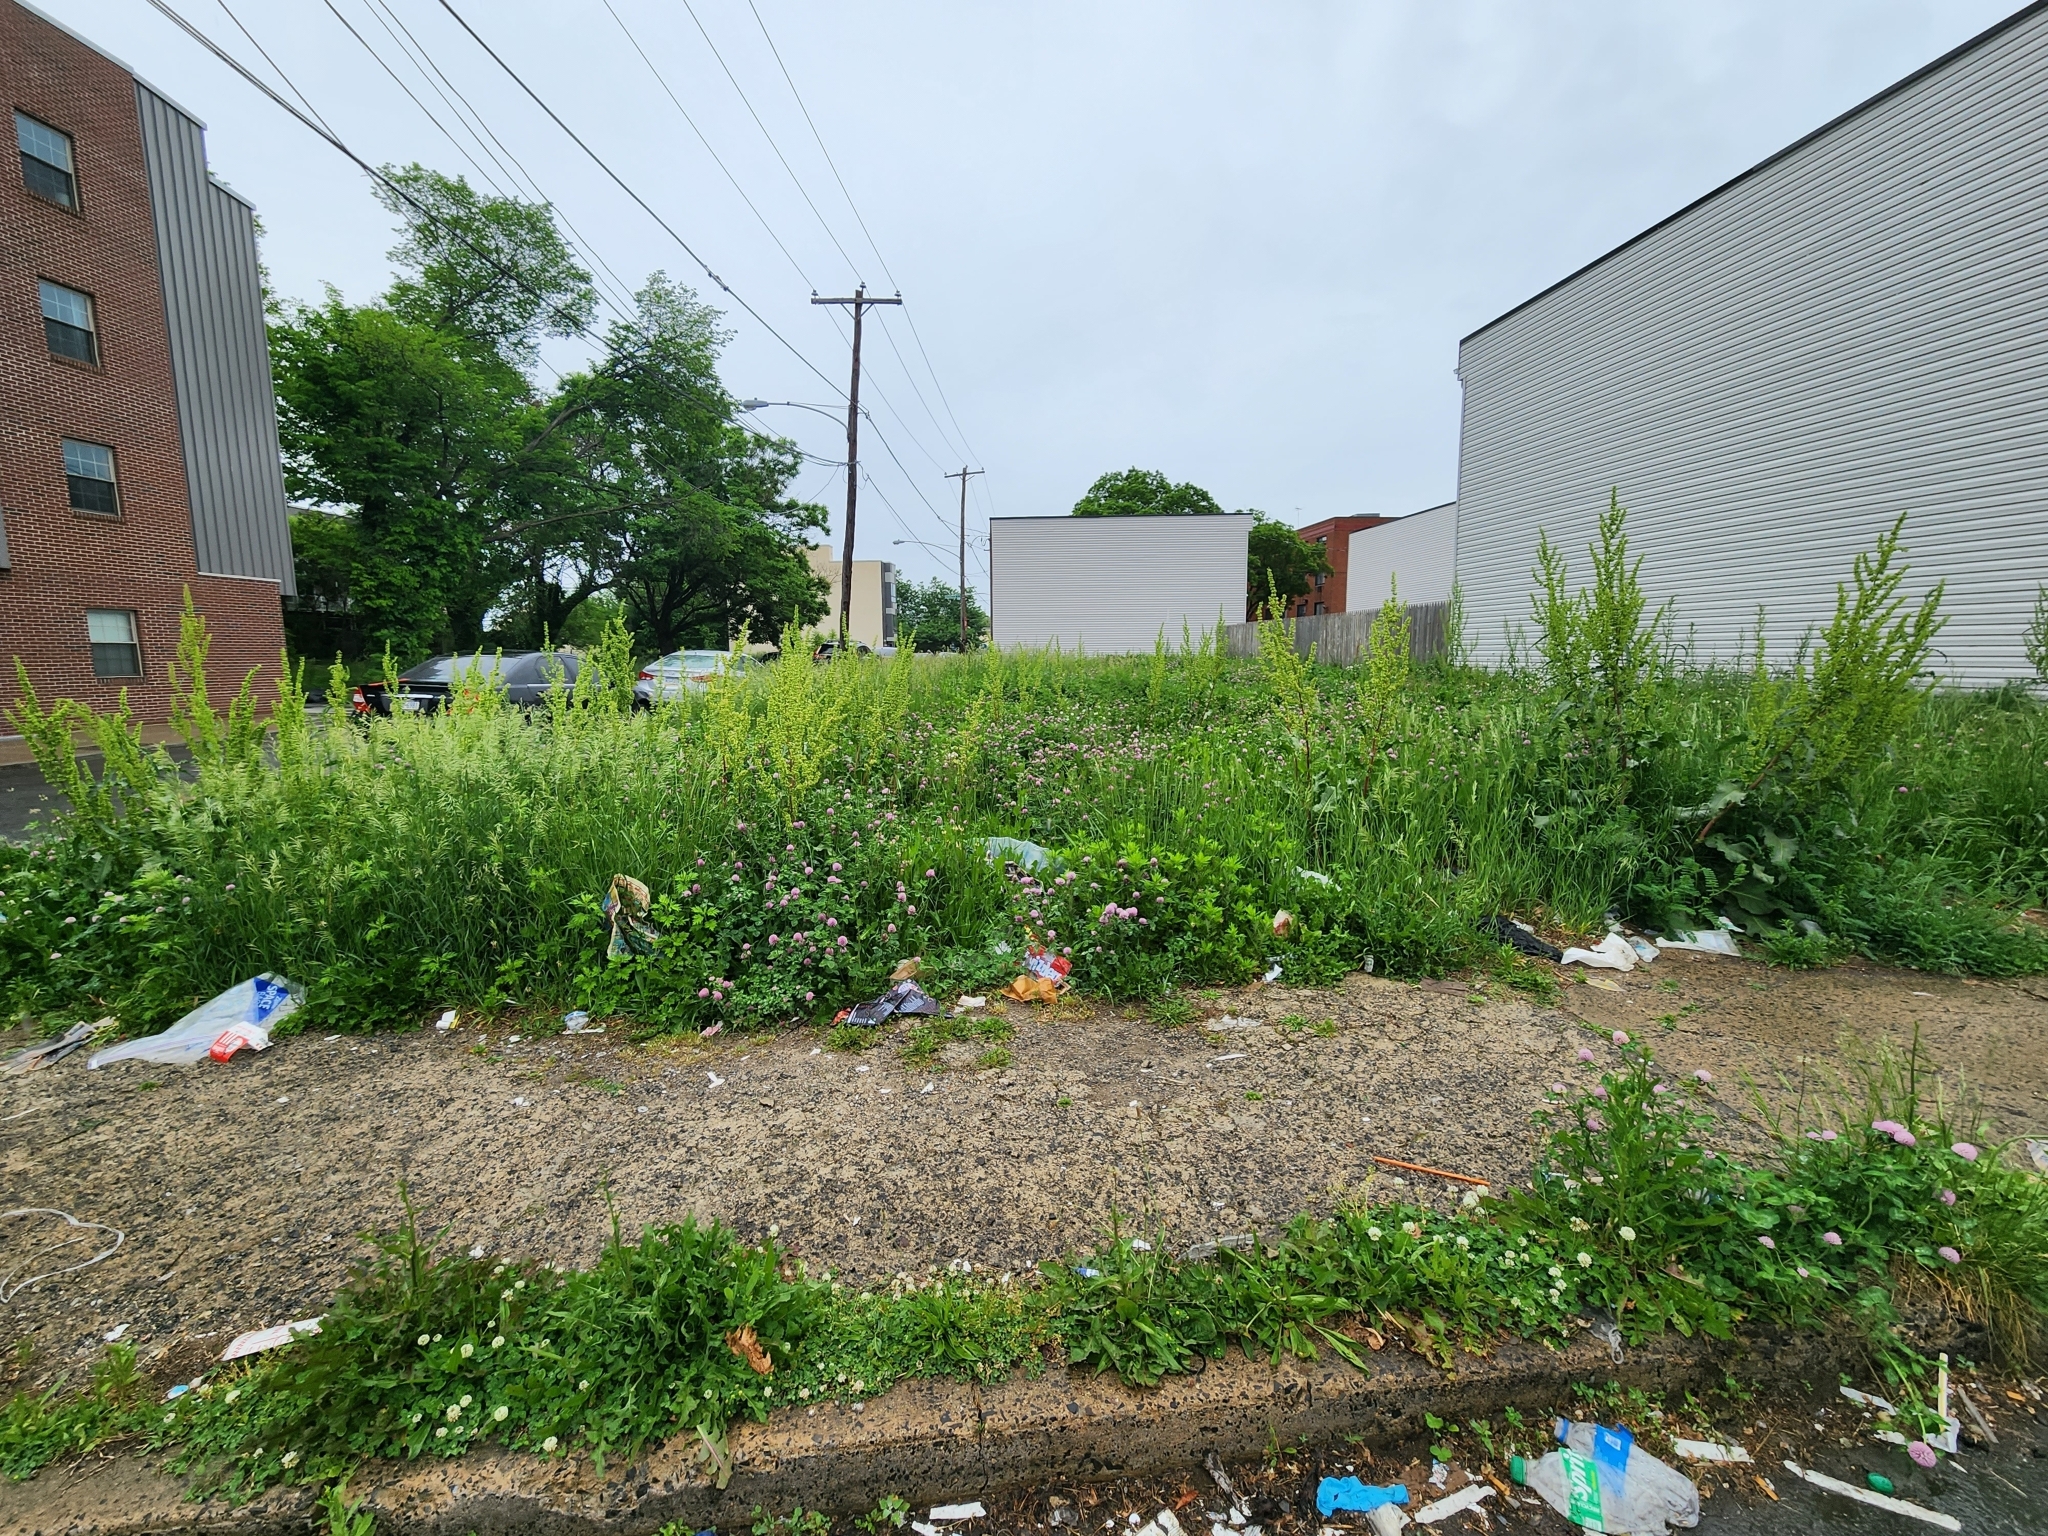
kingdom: Plantae
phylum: Tracheophyta
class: Magnoliopsida
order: Fabales
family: Fabaceae
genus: Trifolium
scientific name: Trifolium pratense
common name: Red clover
